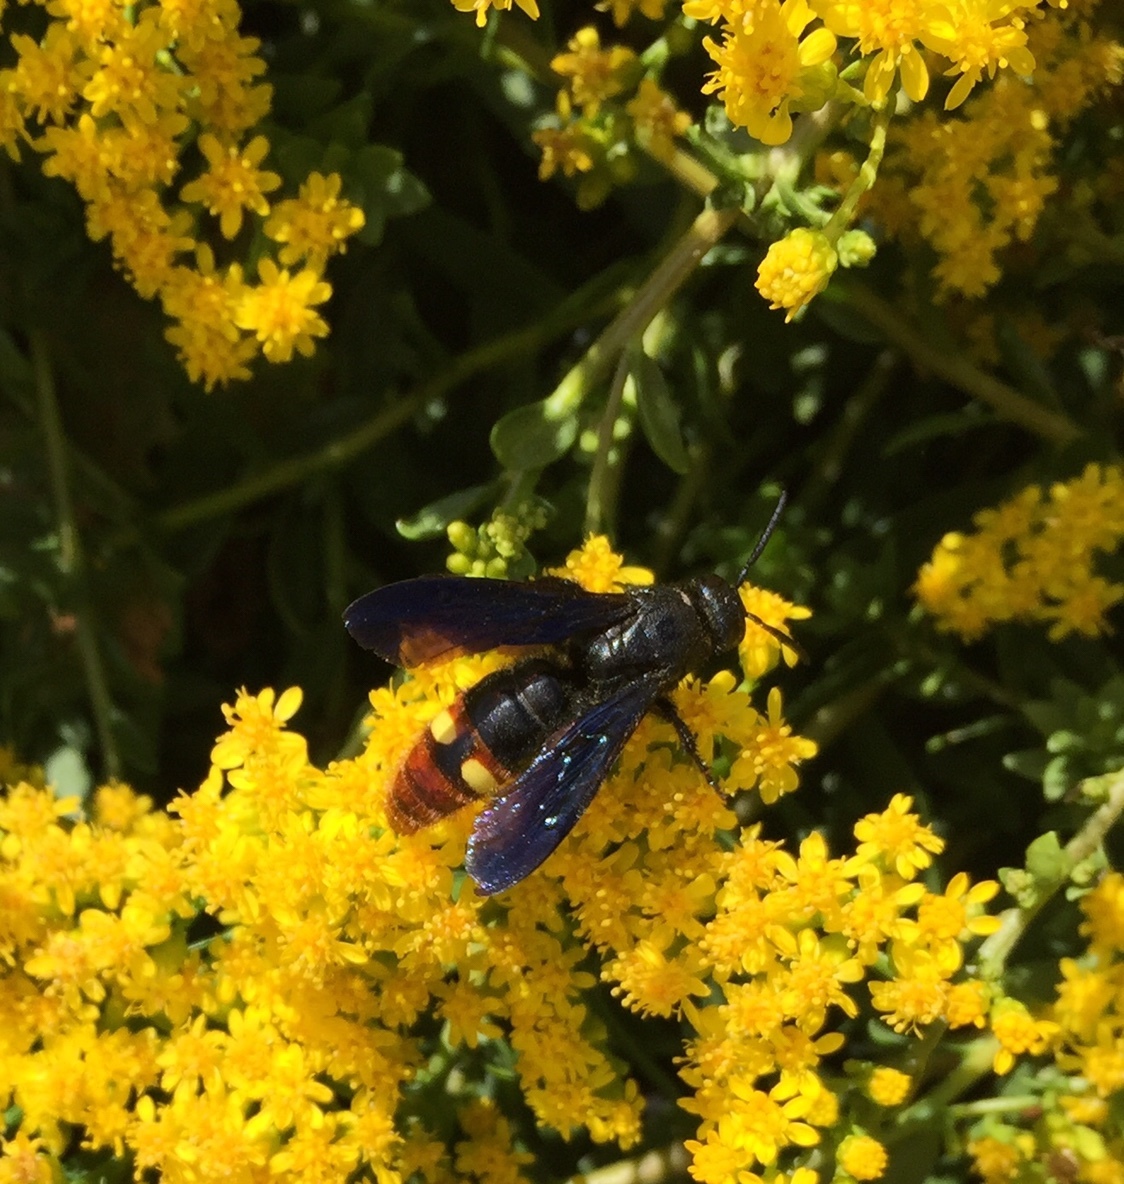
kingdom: Animalia
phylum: Arthropoda
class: Insecta
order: Hymenoptera
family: Scoliidae
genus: Scolia
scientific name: Scolia dubia
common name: Blue-winged scoliid wasp
